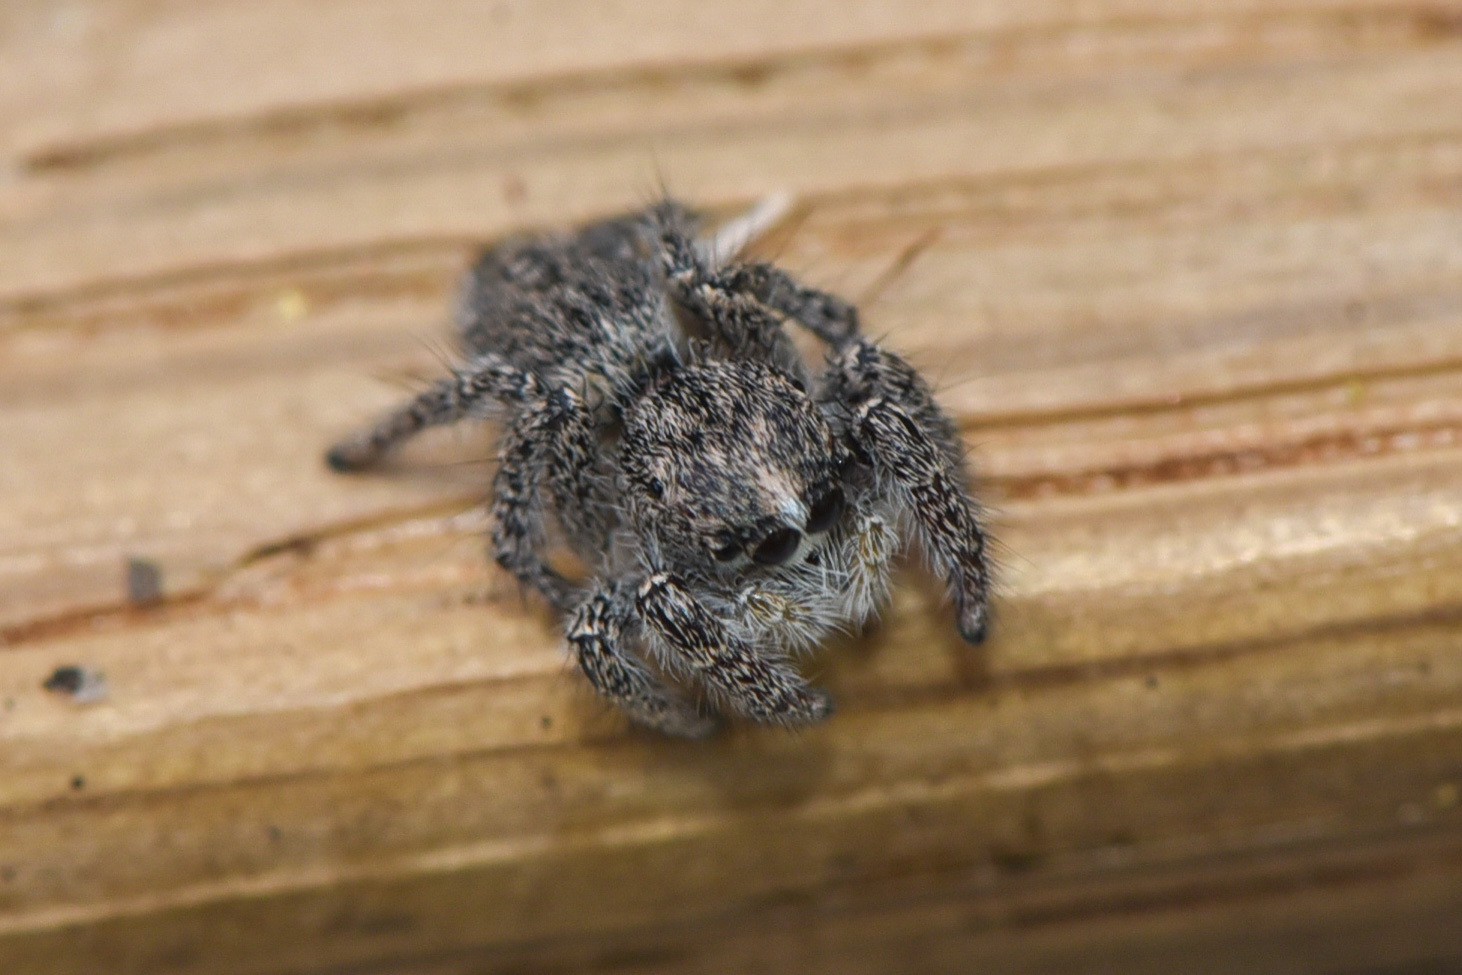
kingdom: Animalia
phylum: Arthropoda
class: Arachnida
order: Araneae
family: Salticidae
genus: Habronattus
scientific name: Habronattus hirsutus
